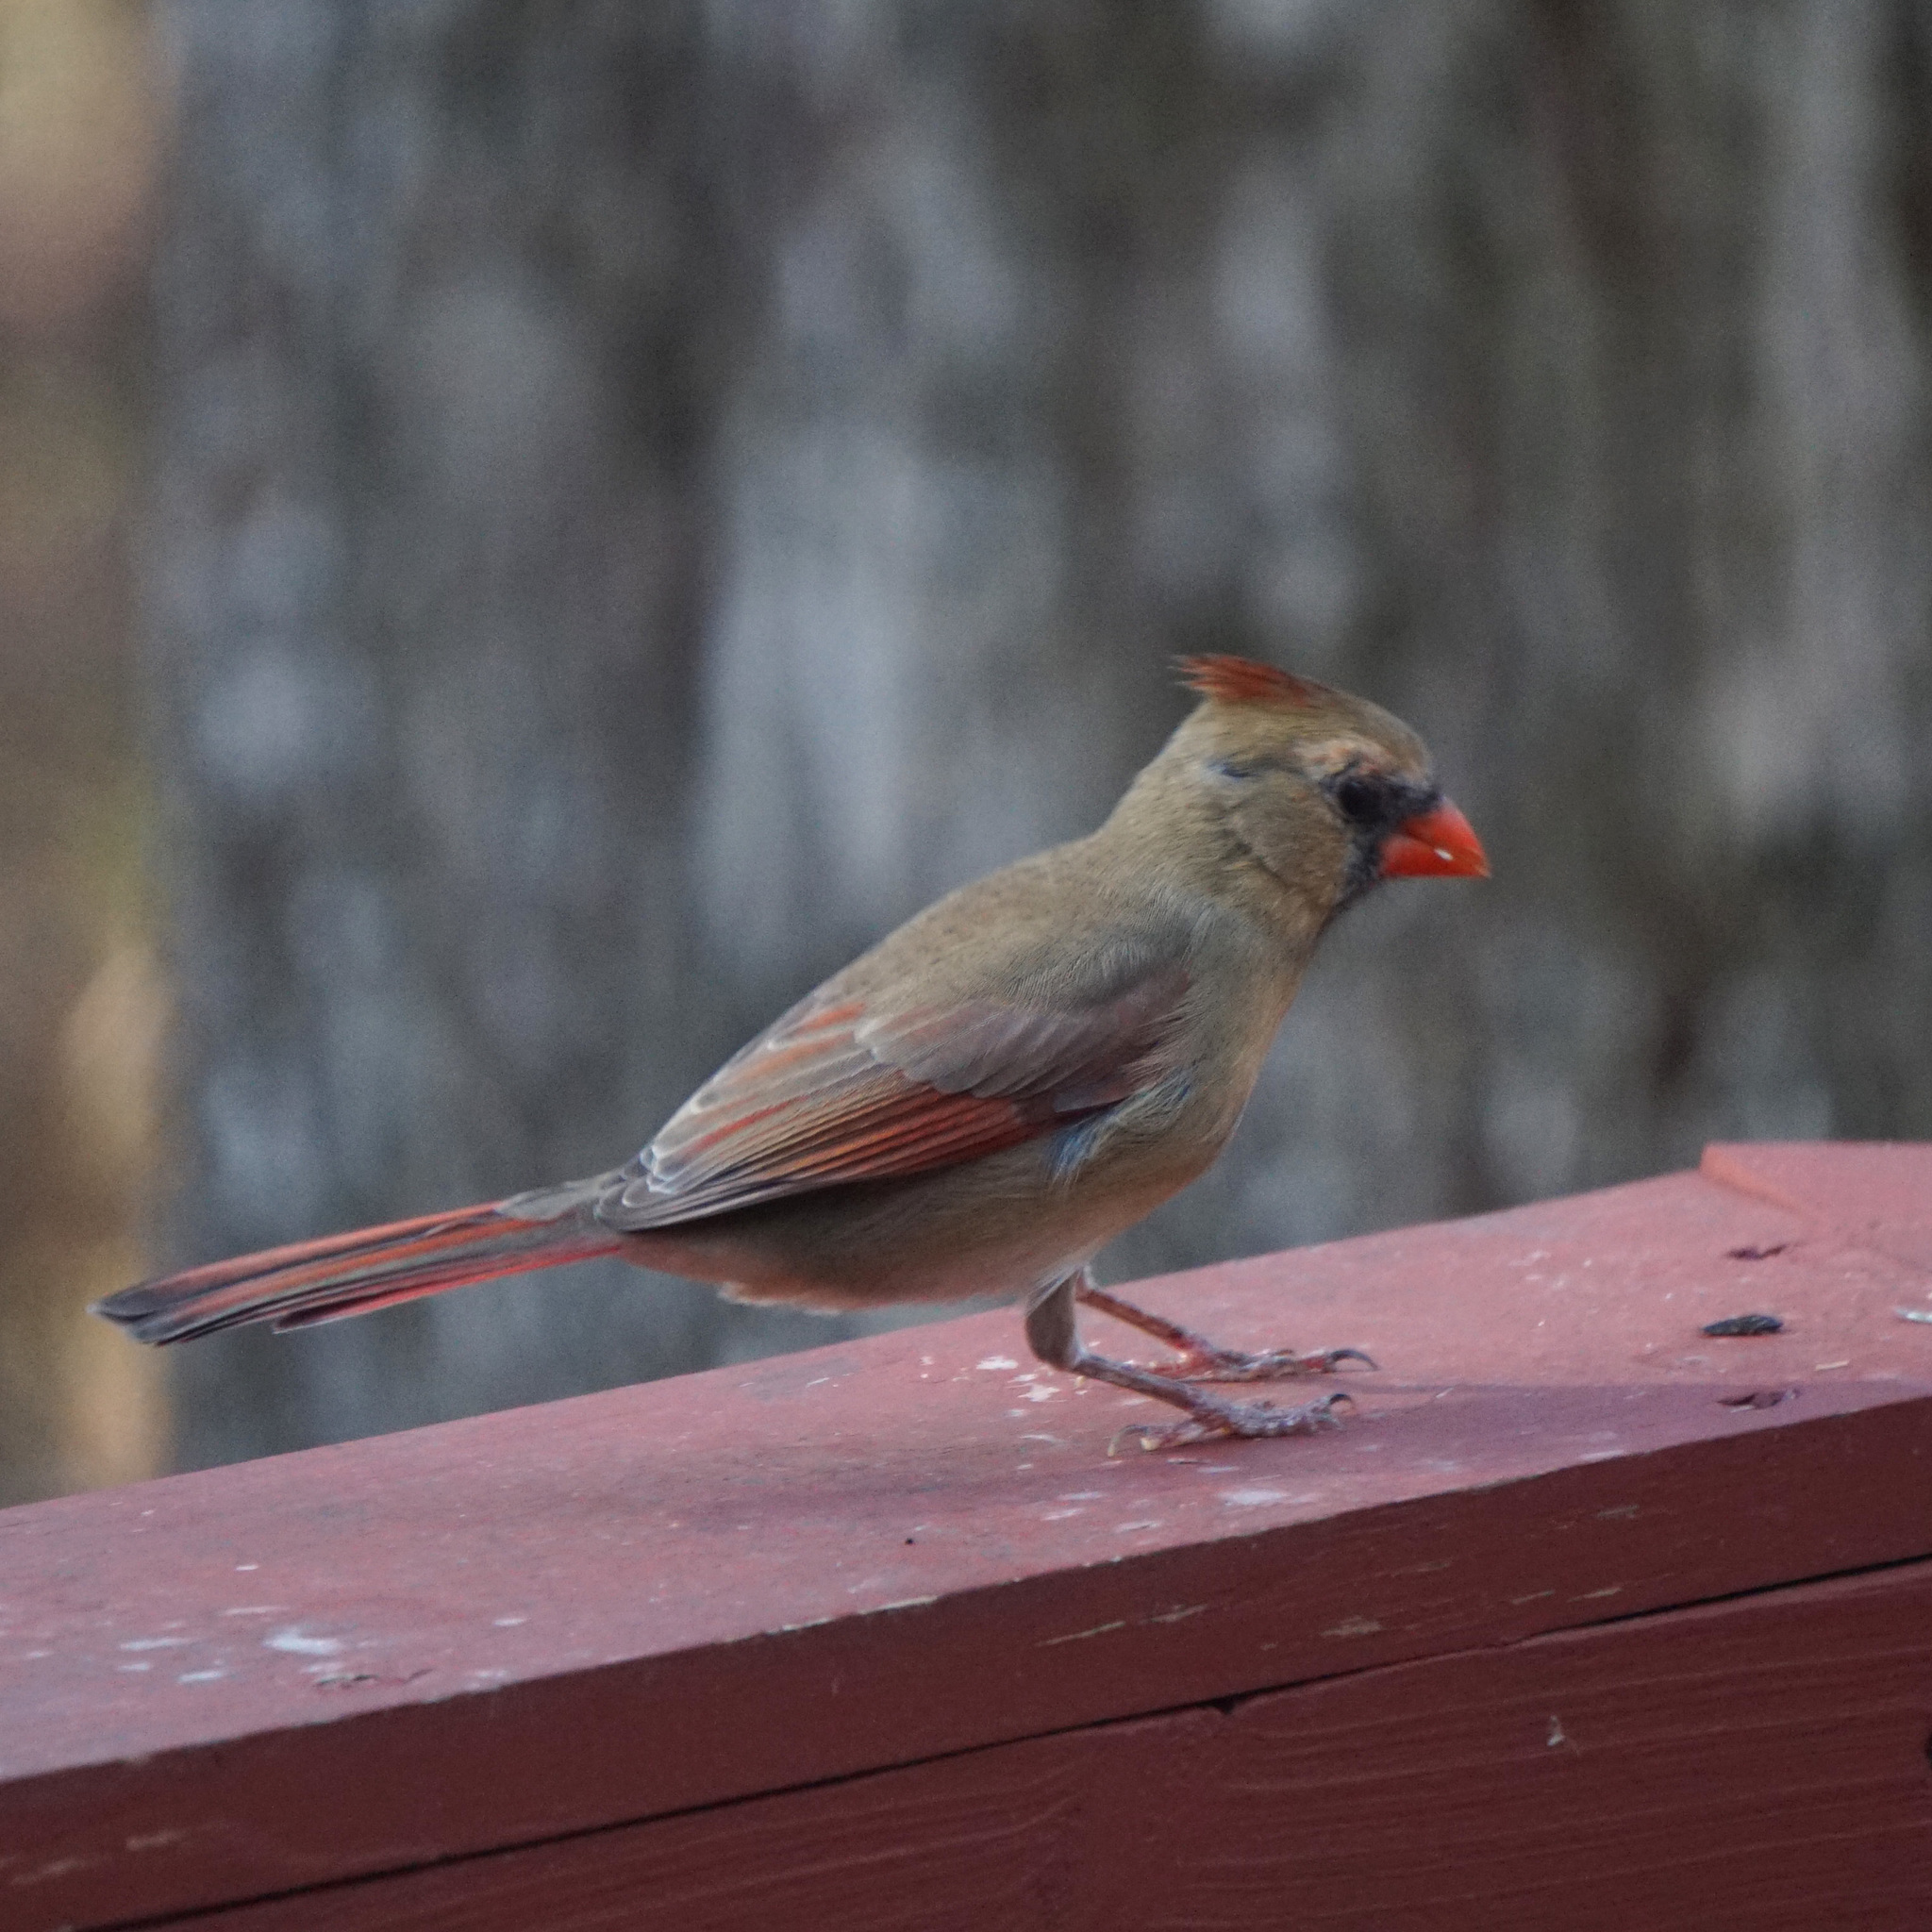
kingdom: Animalia
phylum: Chordata
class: Aves
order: Passeriformes
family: Cardinalidae
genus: Cardinalis
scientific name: Cardinalis cardinalis
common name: Northern cardinal
